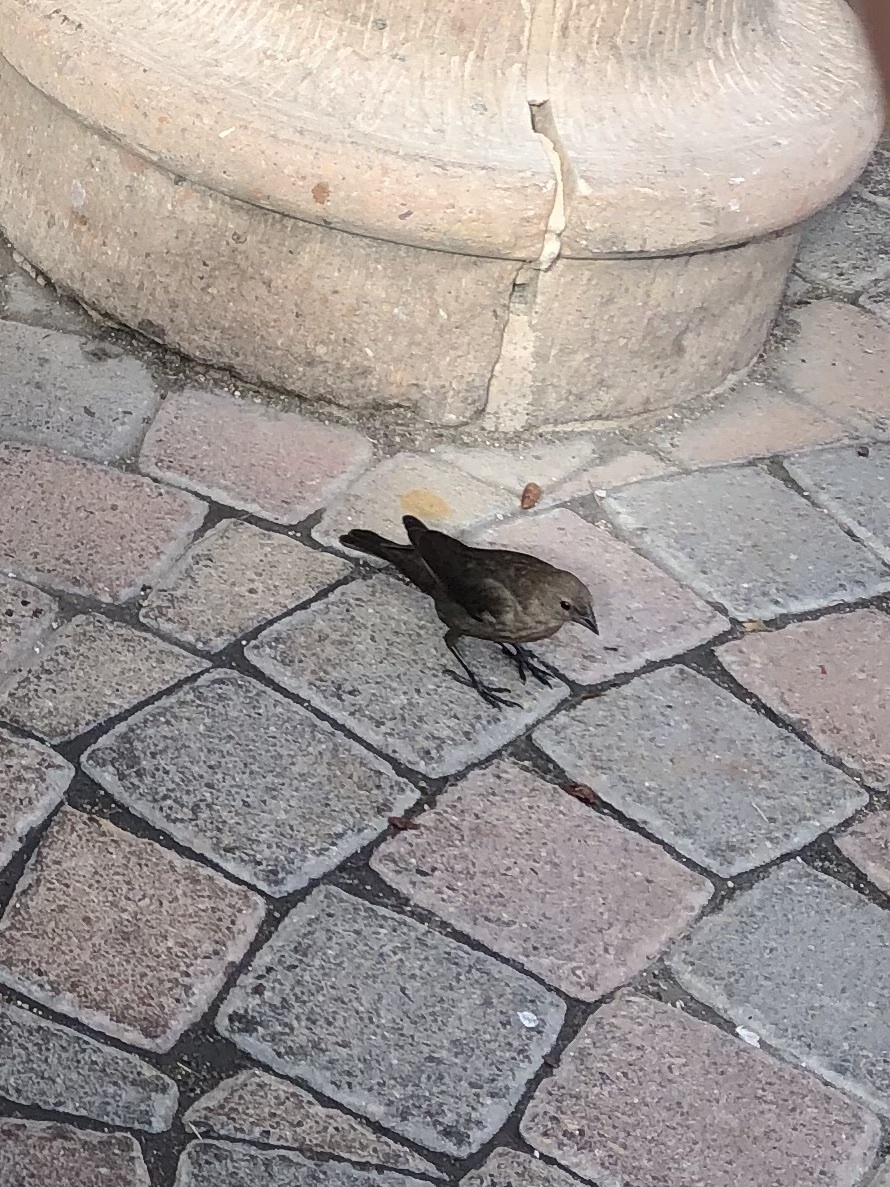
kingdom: Animalia
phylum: Chordata
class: Aves
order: Passeriformes
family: Icteridae
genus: Molothrus
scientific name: Molothrus ater
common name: Brown-headed cowbird
